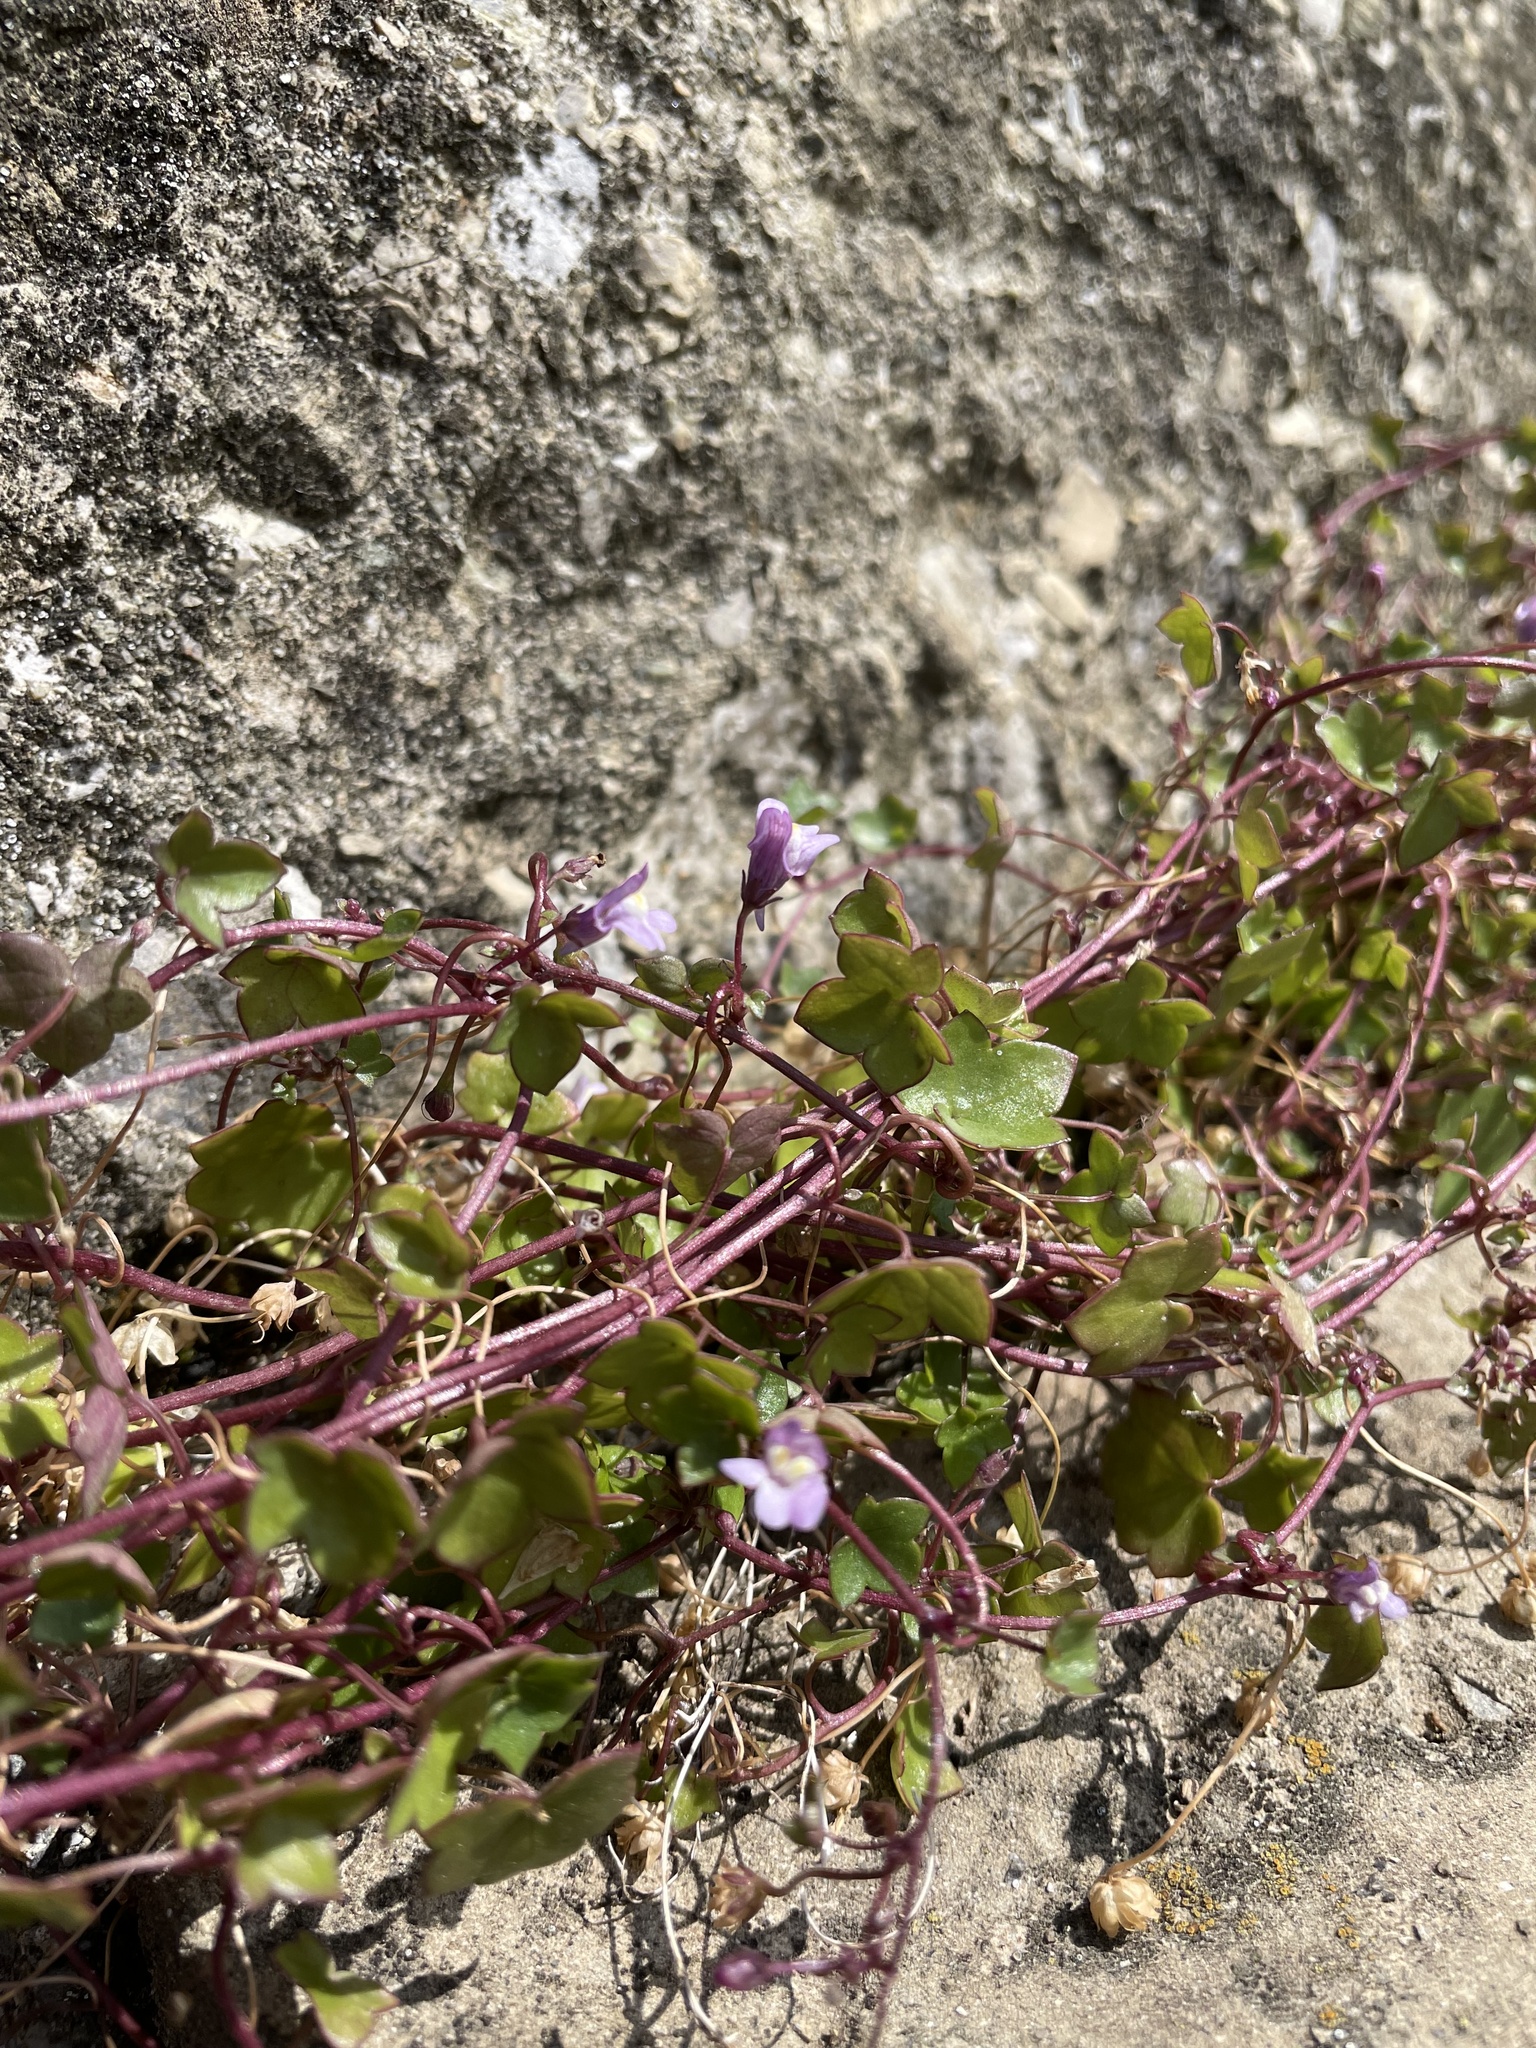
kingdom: Plantae
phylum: Tracheophyta
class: Magnoliopsida
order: Lamiales
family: Plantaginaceae
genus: Cymbalaria
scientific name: Cymbalaria muralis
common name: Ivy-leaved toadflax
